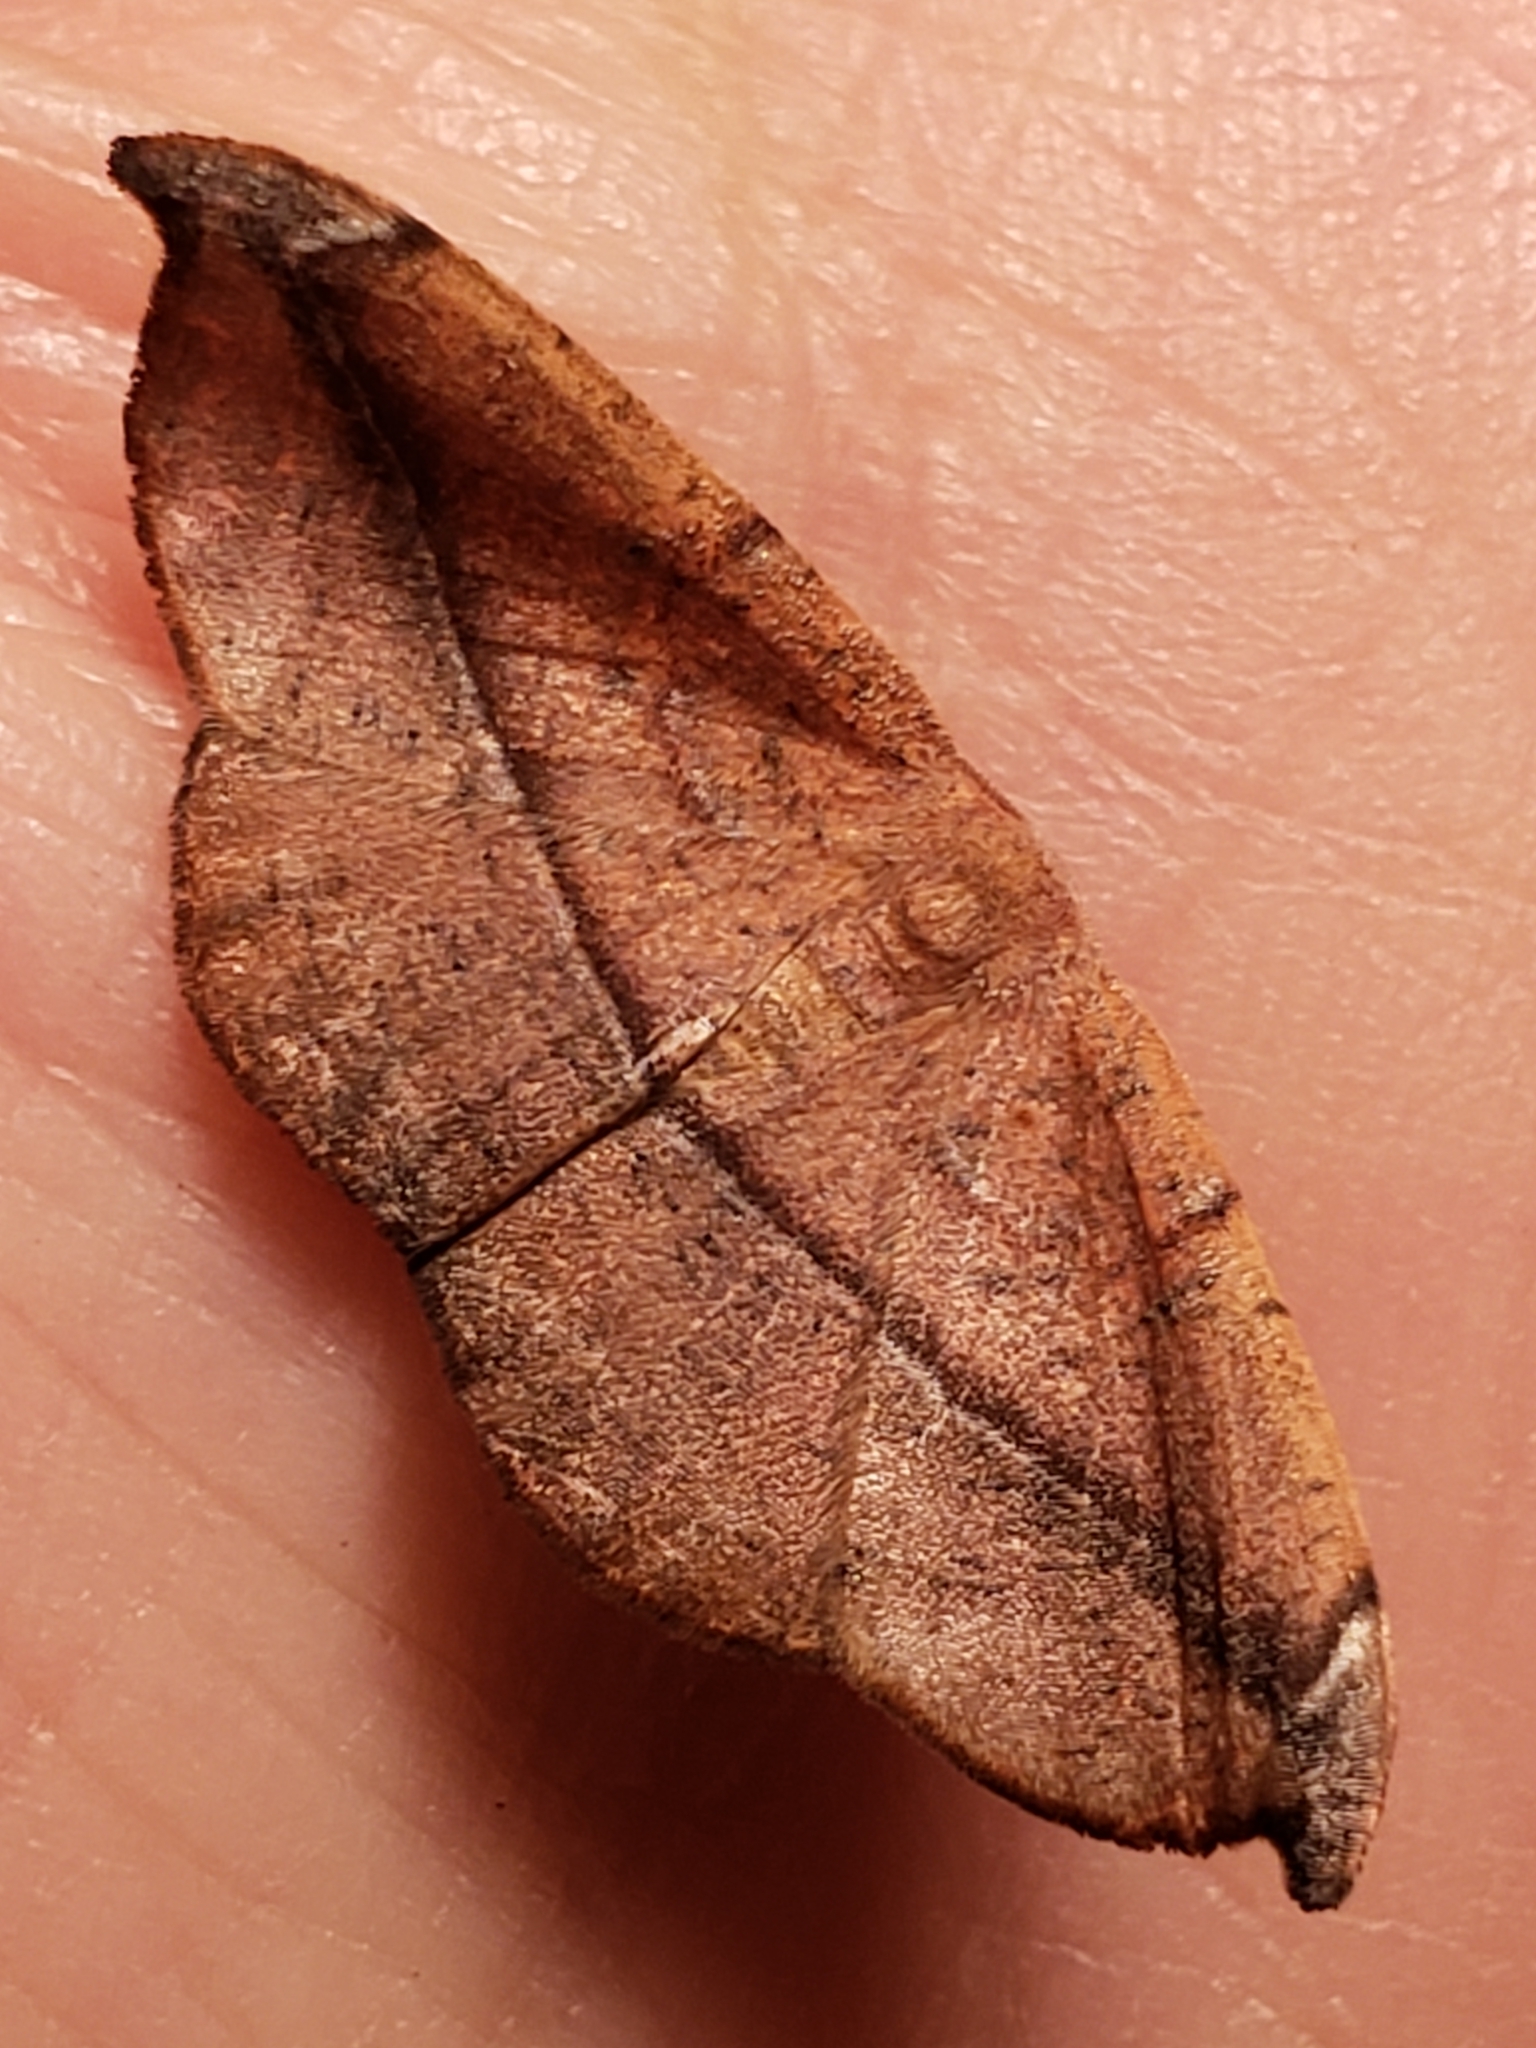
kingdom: Animalia
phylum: Arthropoda
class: Insecta
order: Lepidoptera
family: Geometridae
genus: Patalene
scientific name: Patalene olyzonaria
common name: Juniper geometer moth
